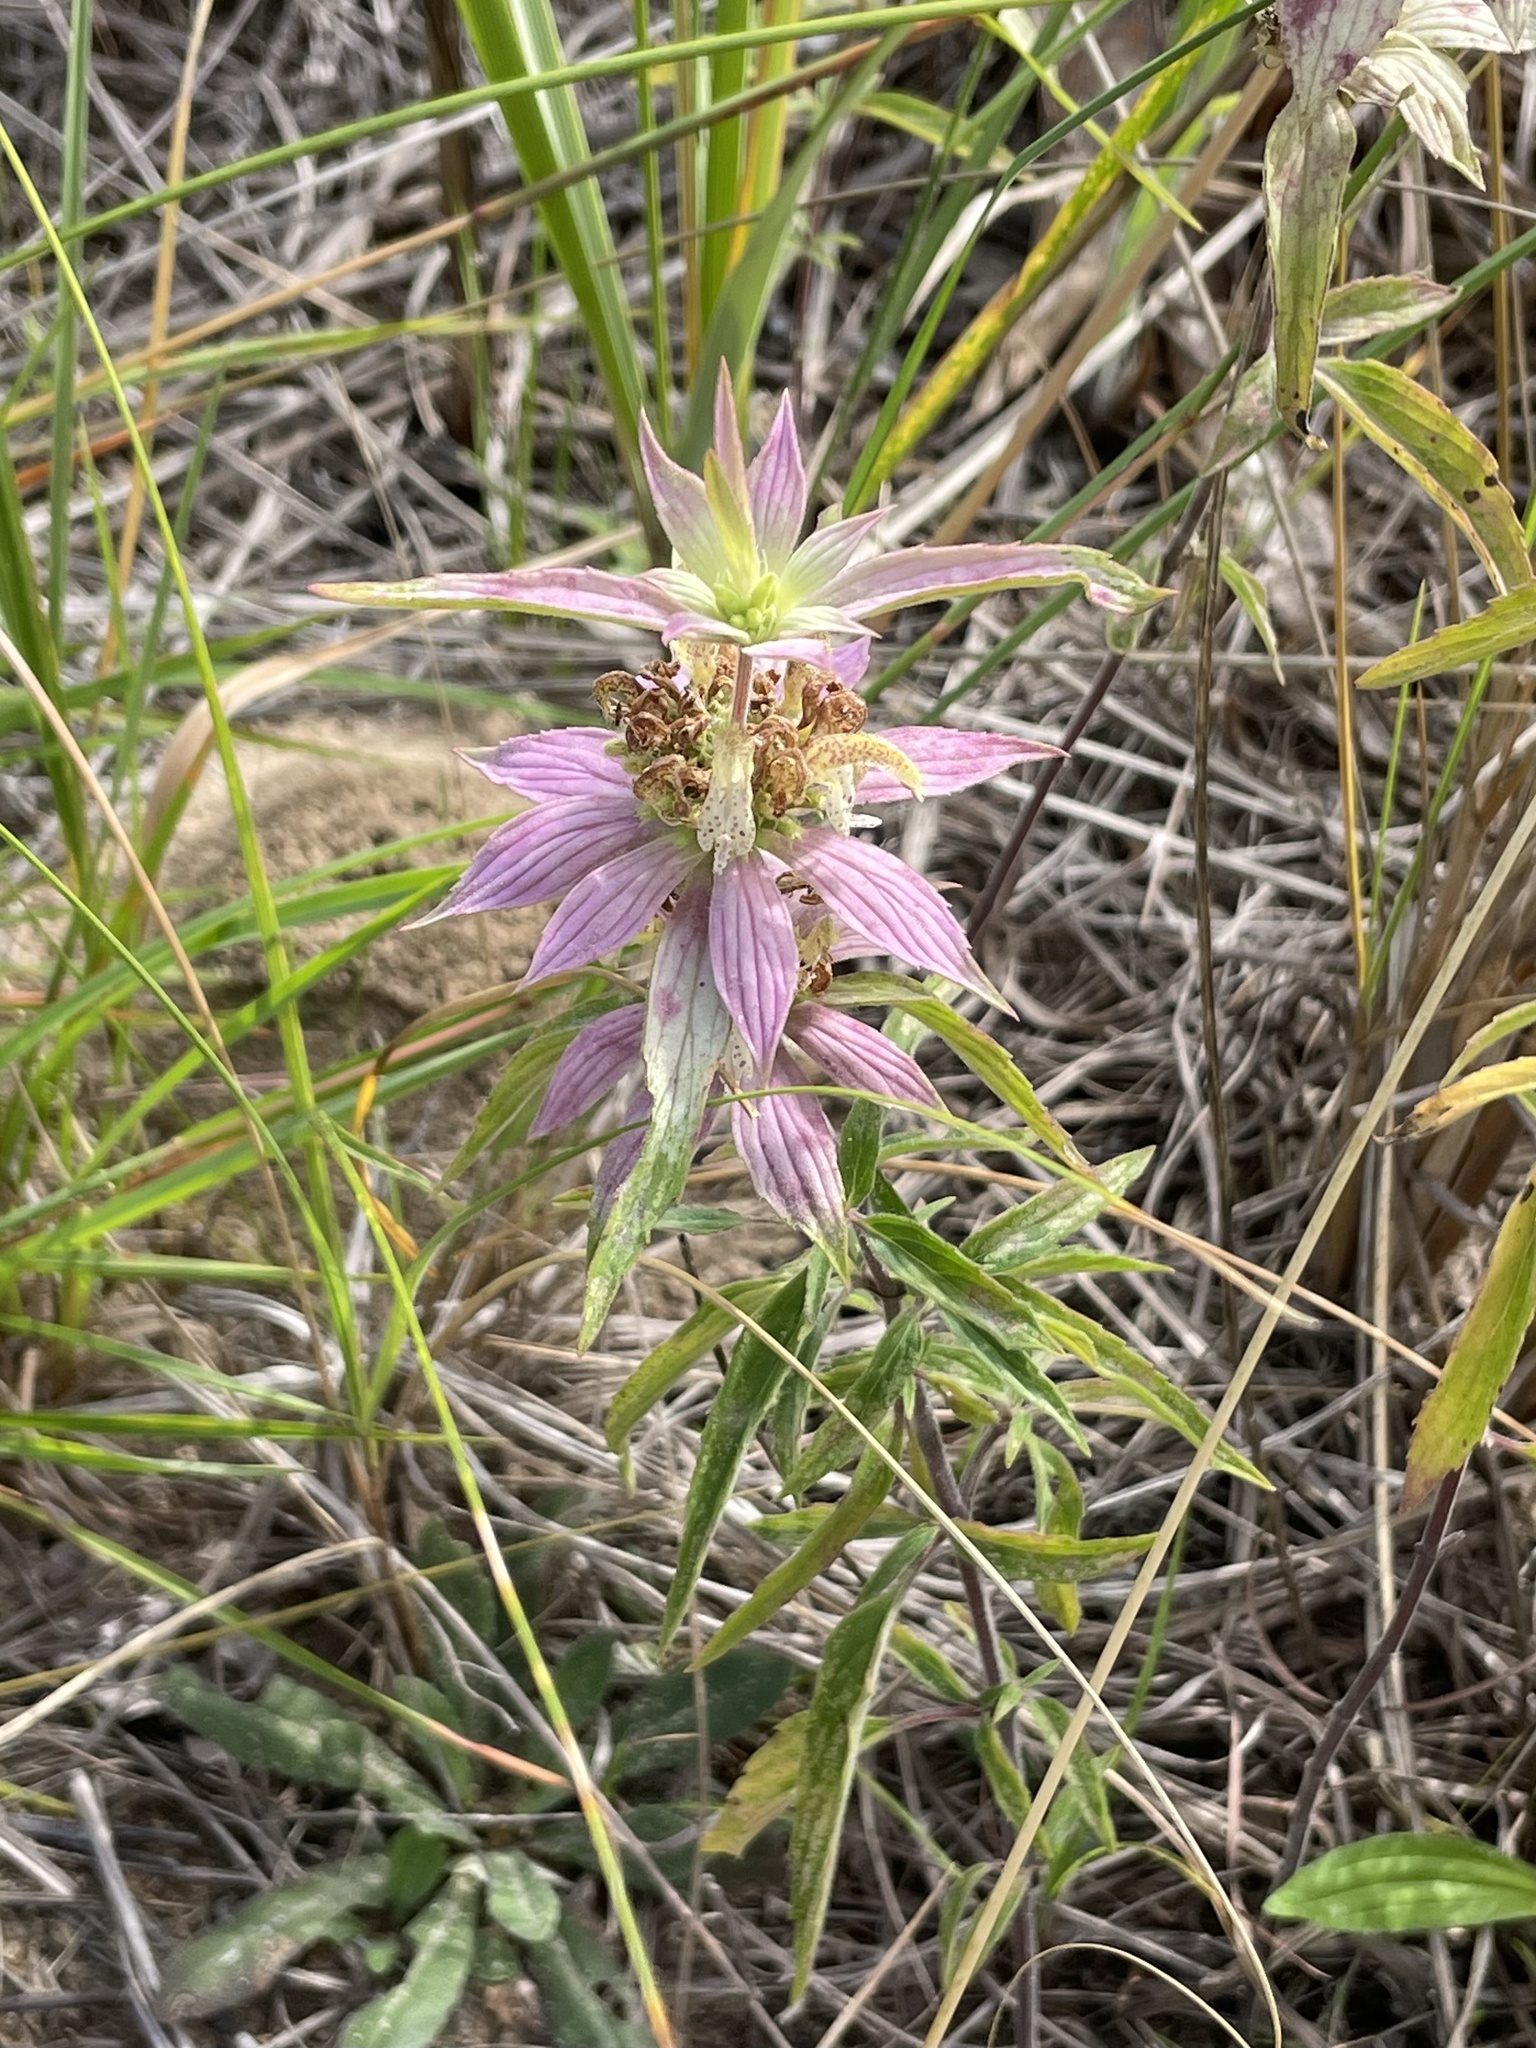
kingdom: Plantae
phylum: Tracheophyta
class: Magnoliopsida
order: Lamiales
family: Lamiaceae
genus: Monarda
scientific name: Monarda punctata
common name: Dotted monarda
